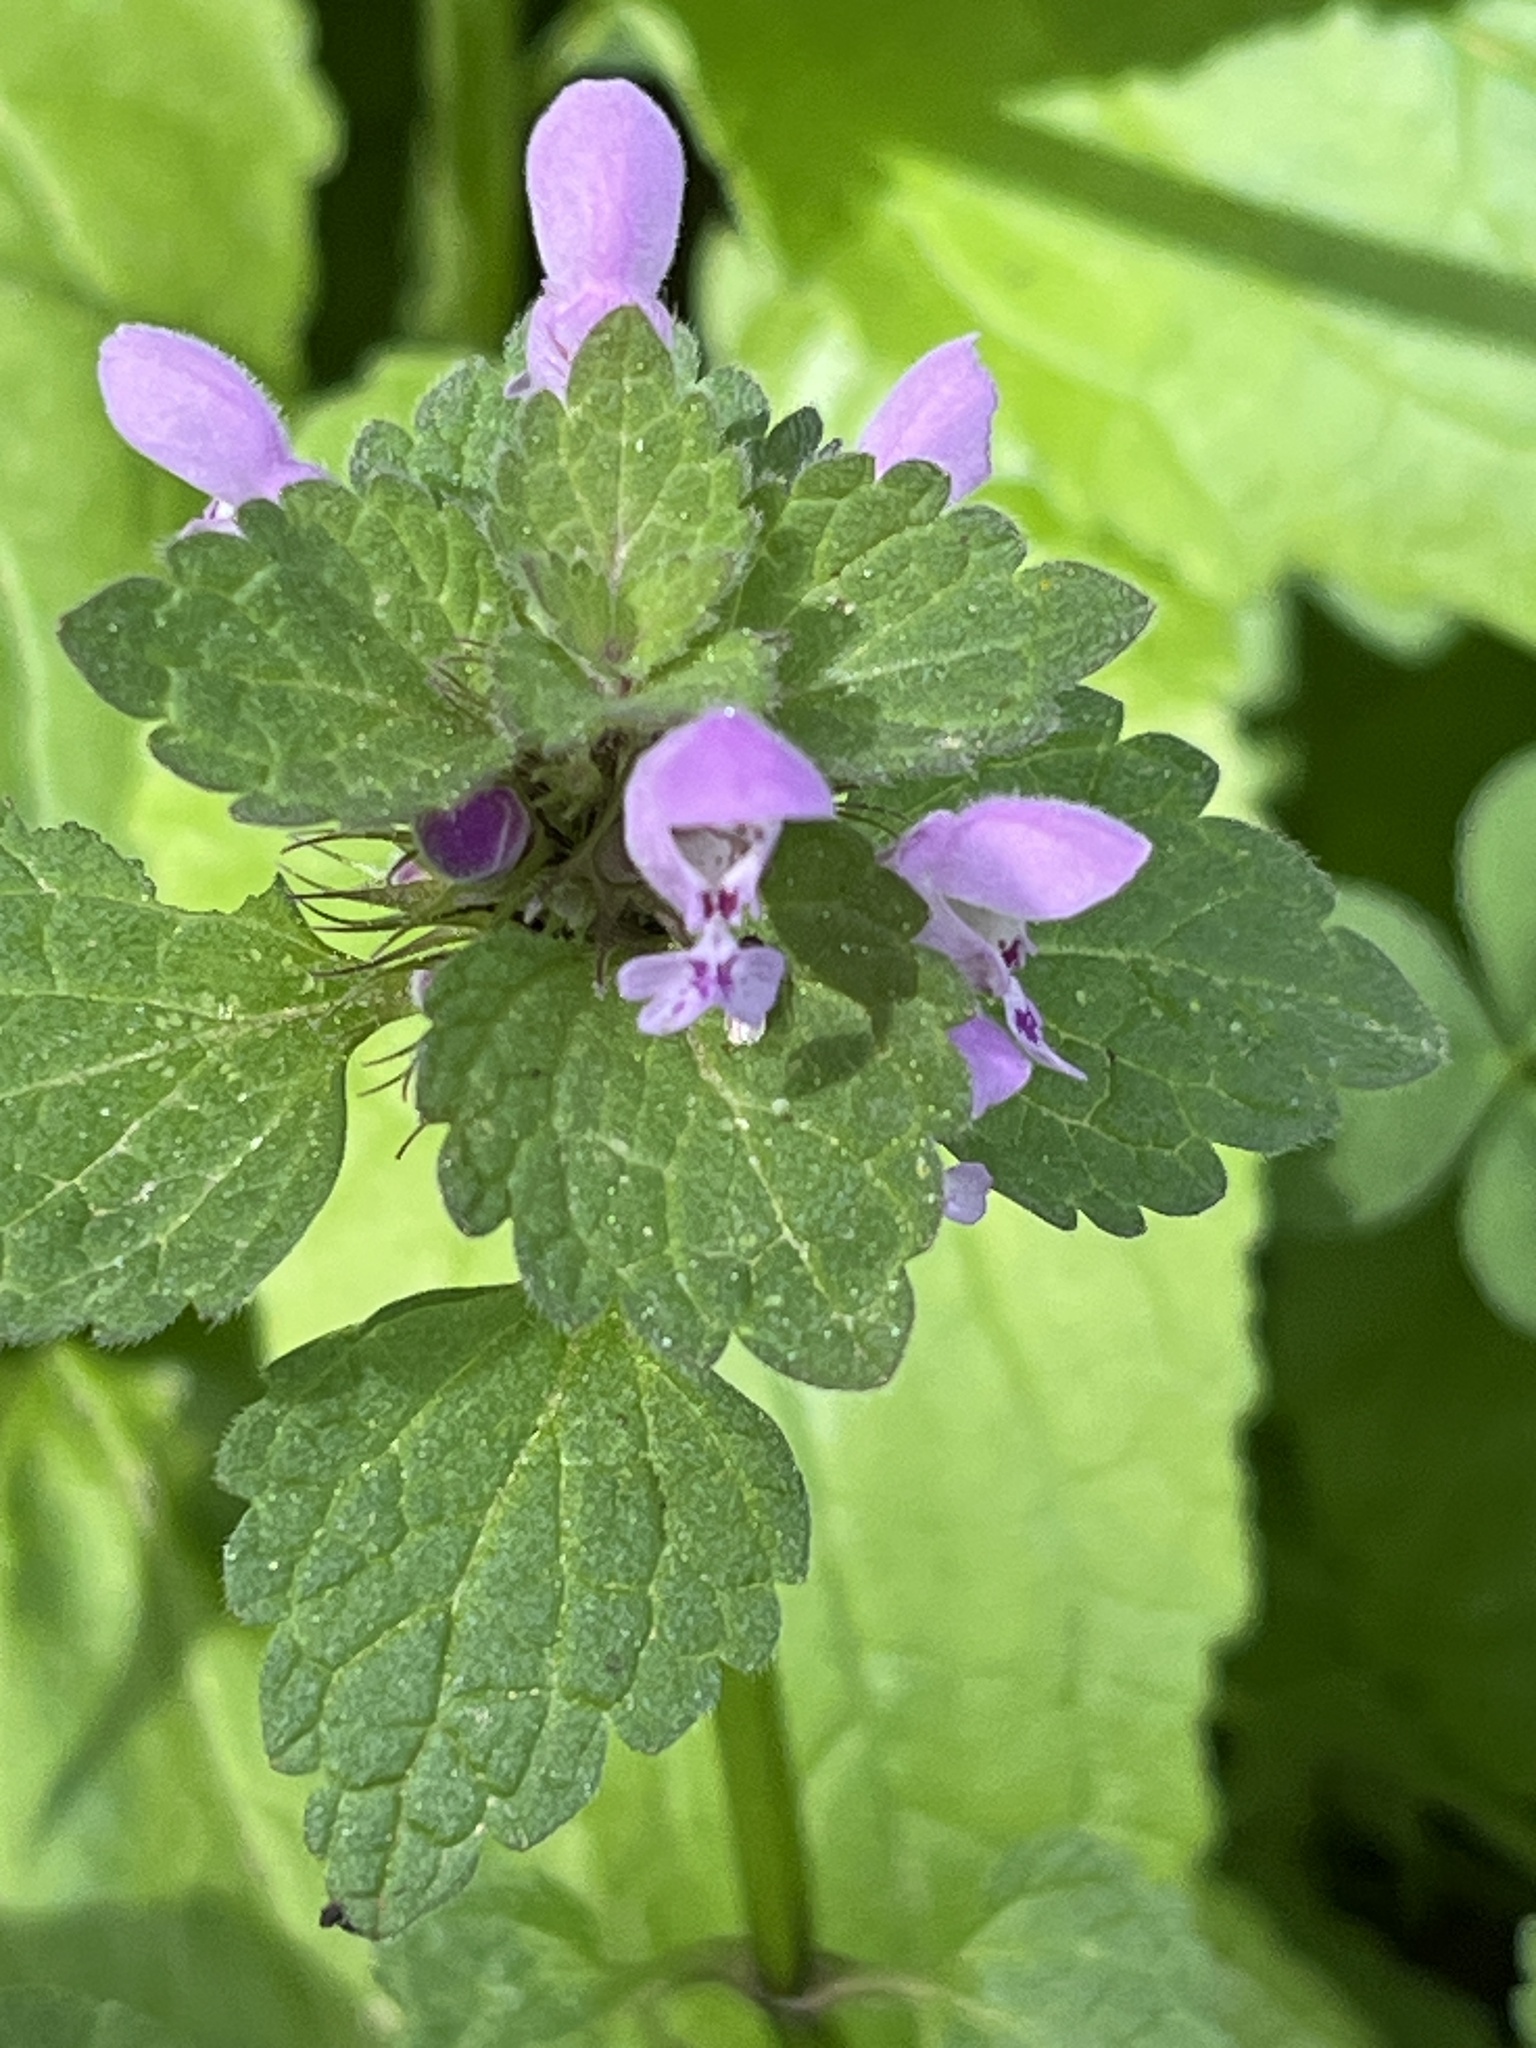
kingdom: Plantae
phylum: Tracheophyta
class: Magnoliopsida
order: Lamiales
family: Lamiaceae
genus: Lamium
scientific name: Lamium purpureum
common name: Red dead-nettle
